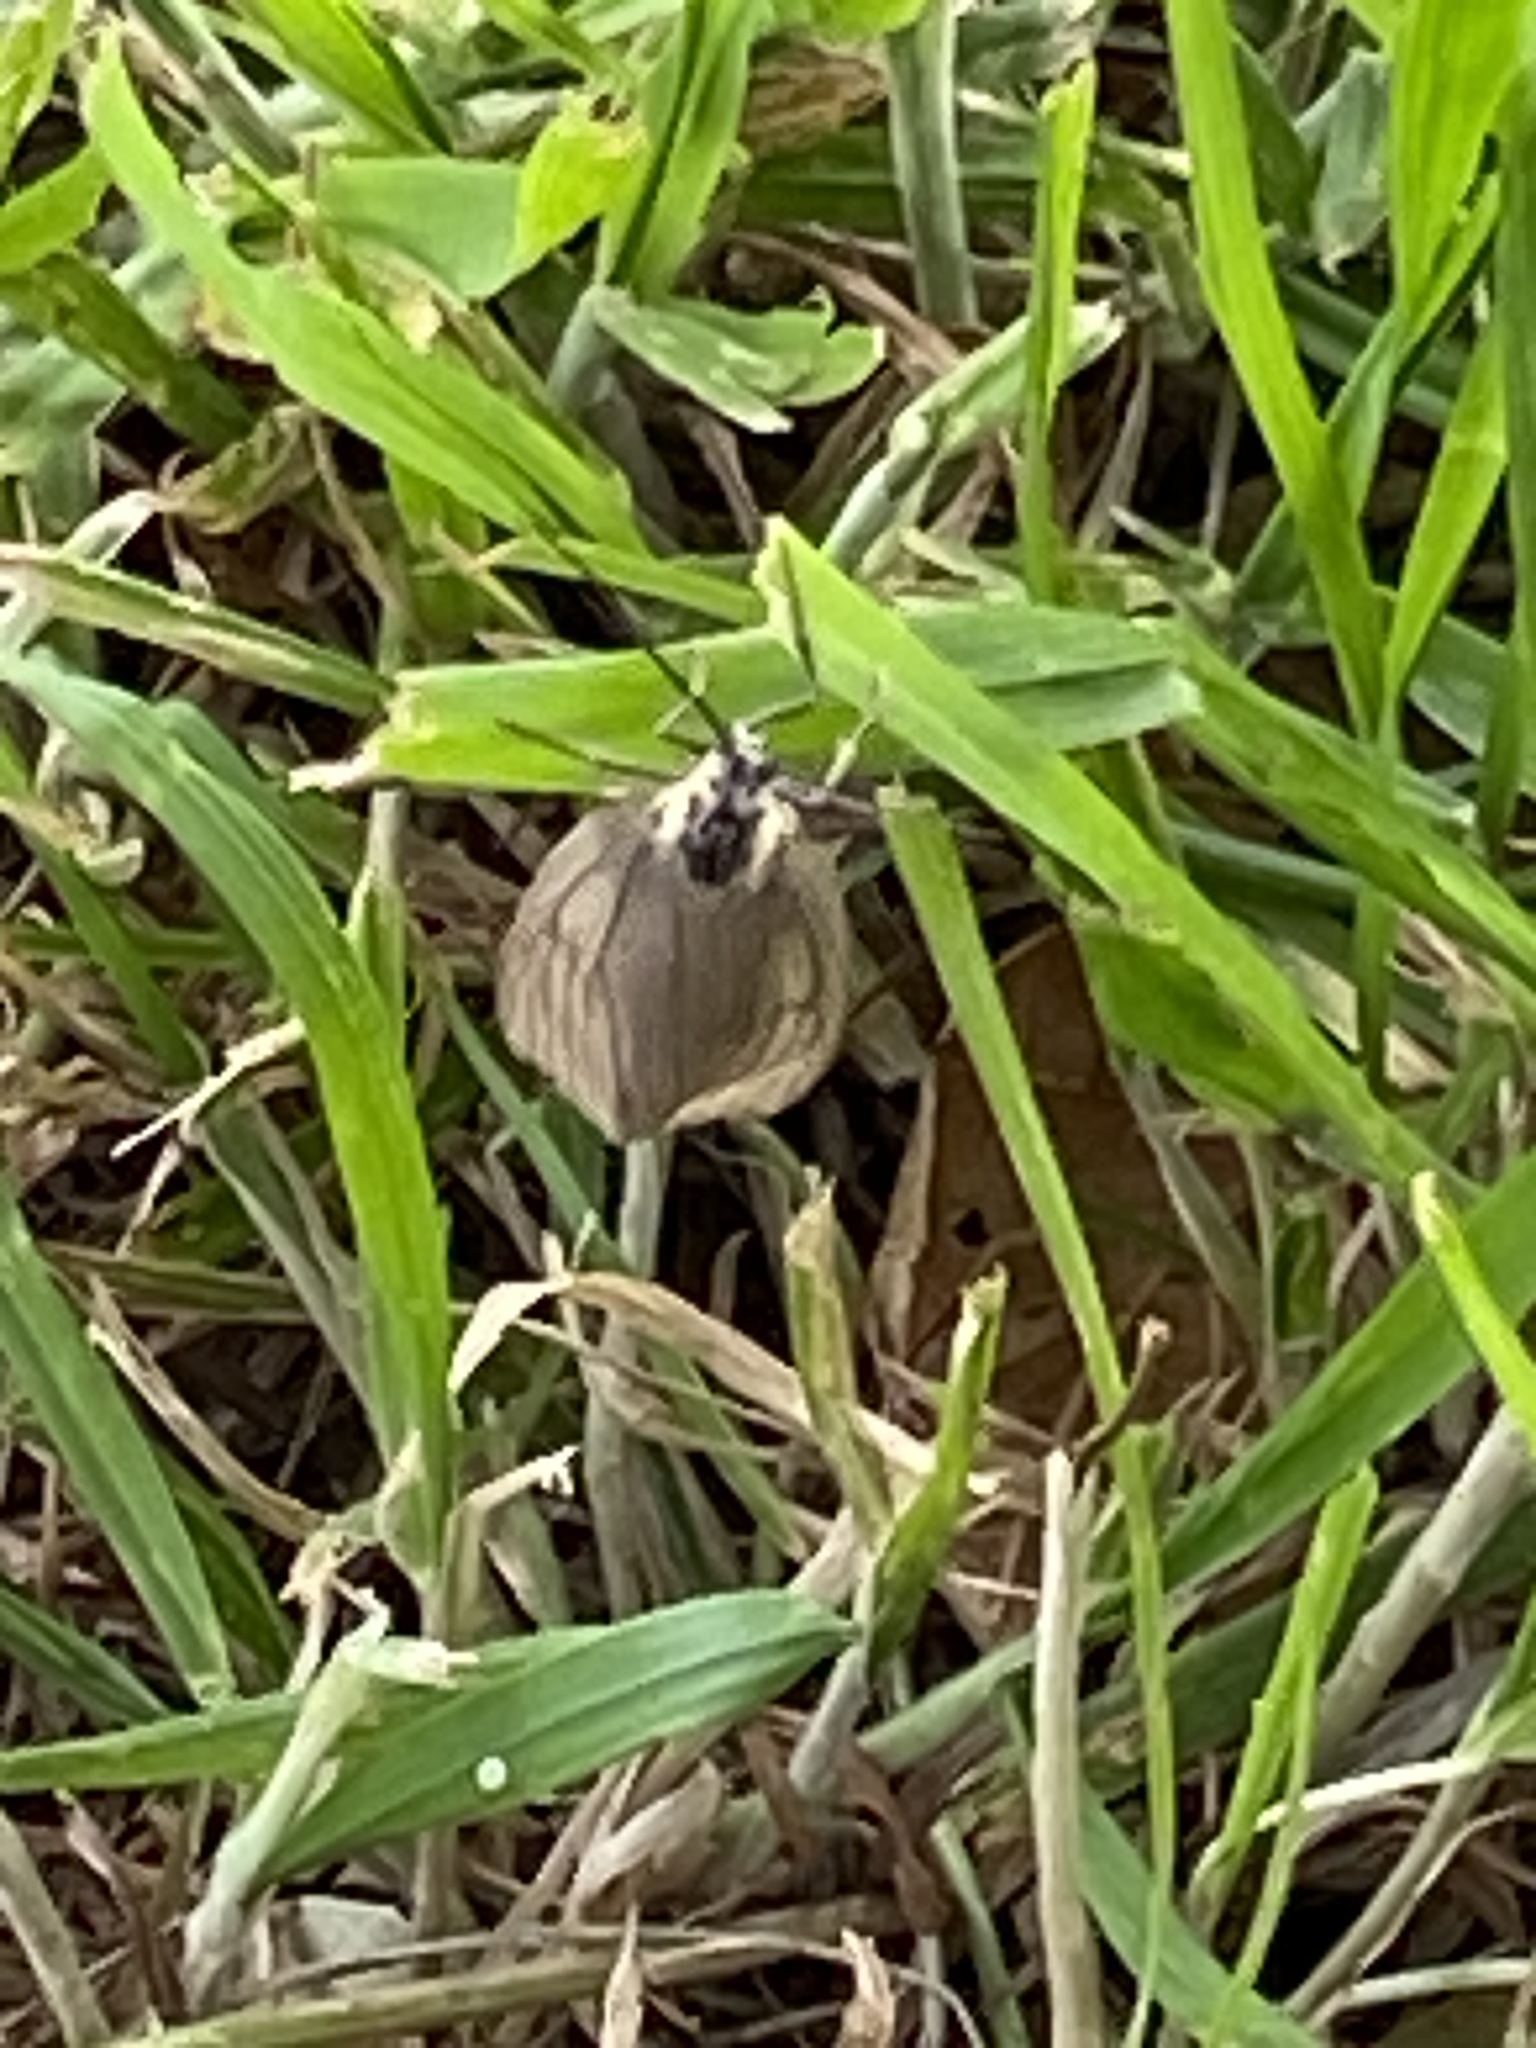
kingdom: Animalia
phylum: Arthropoda
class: Insecta
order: Lepidoptera
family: Notodontidae
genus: Phryganidia
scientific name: Phryganidia californica
